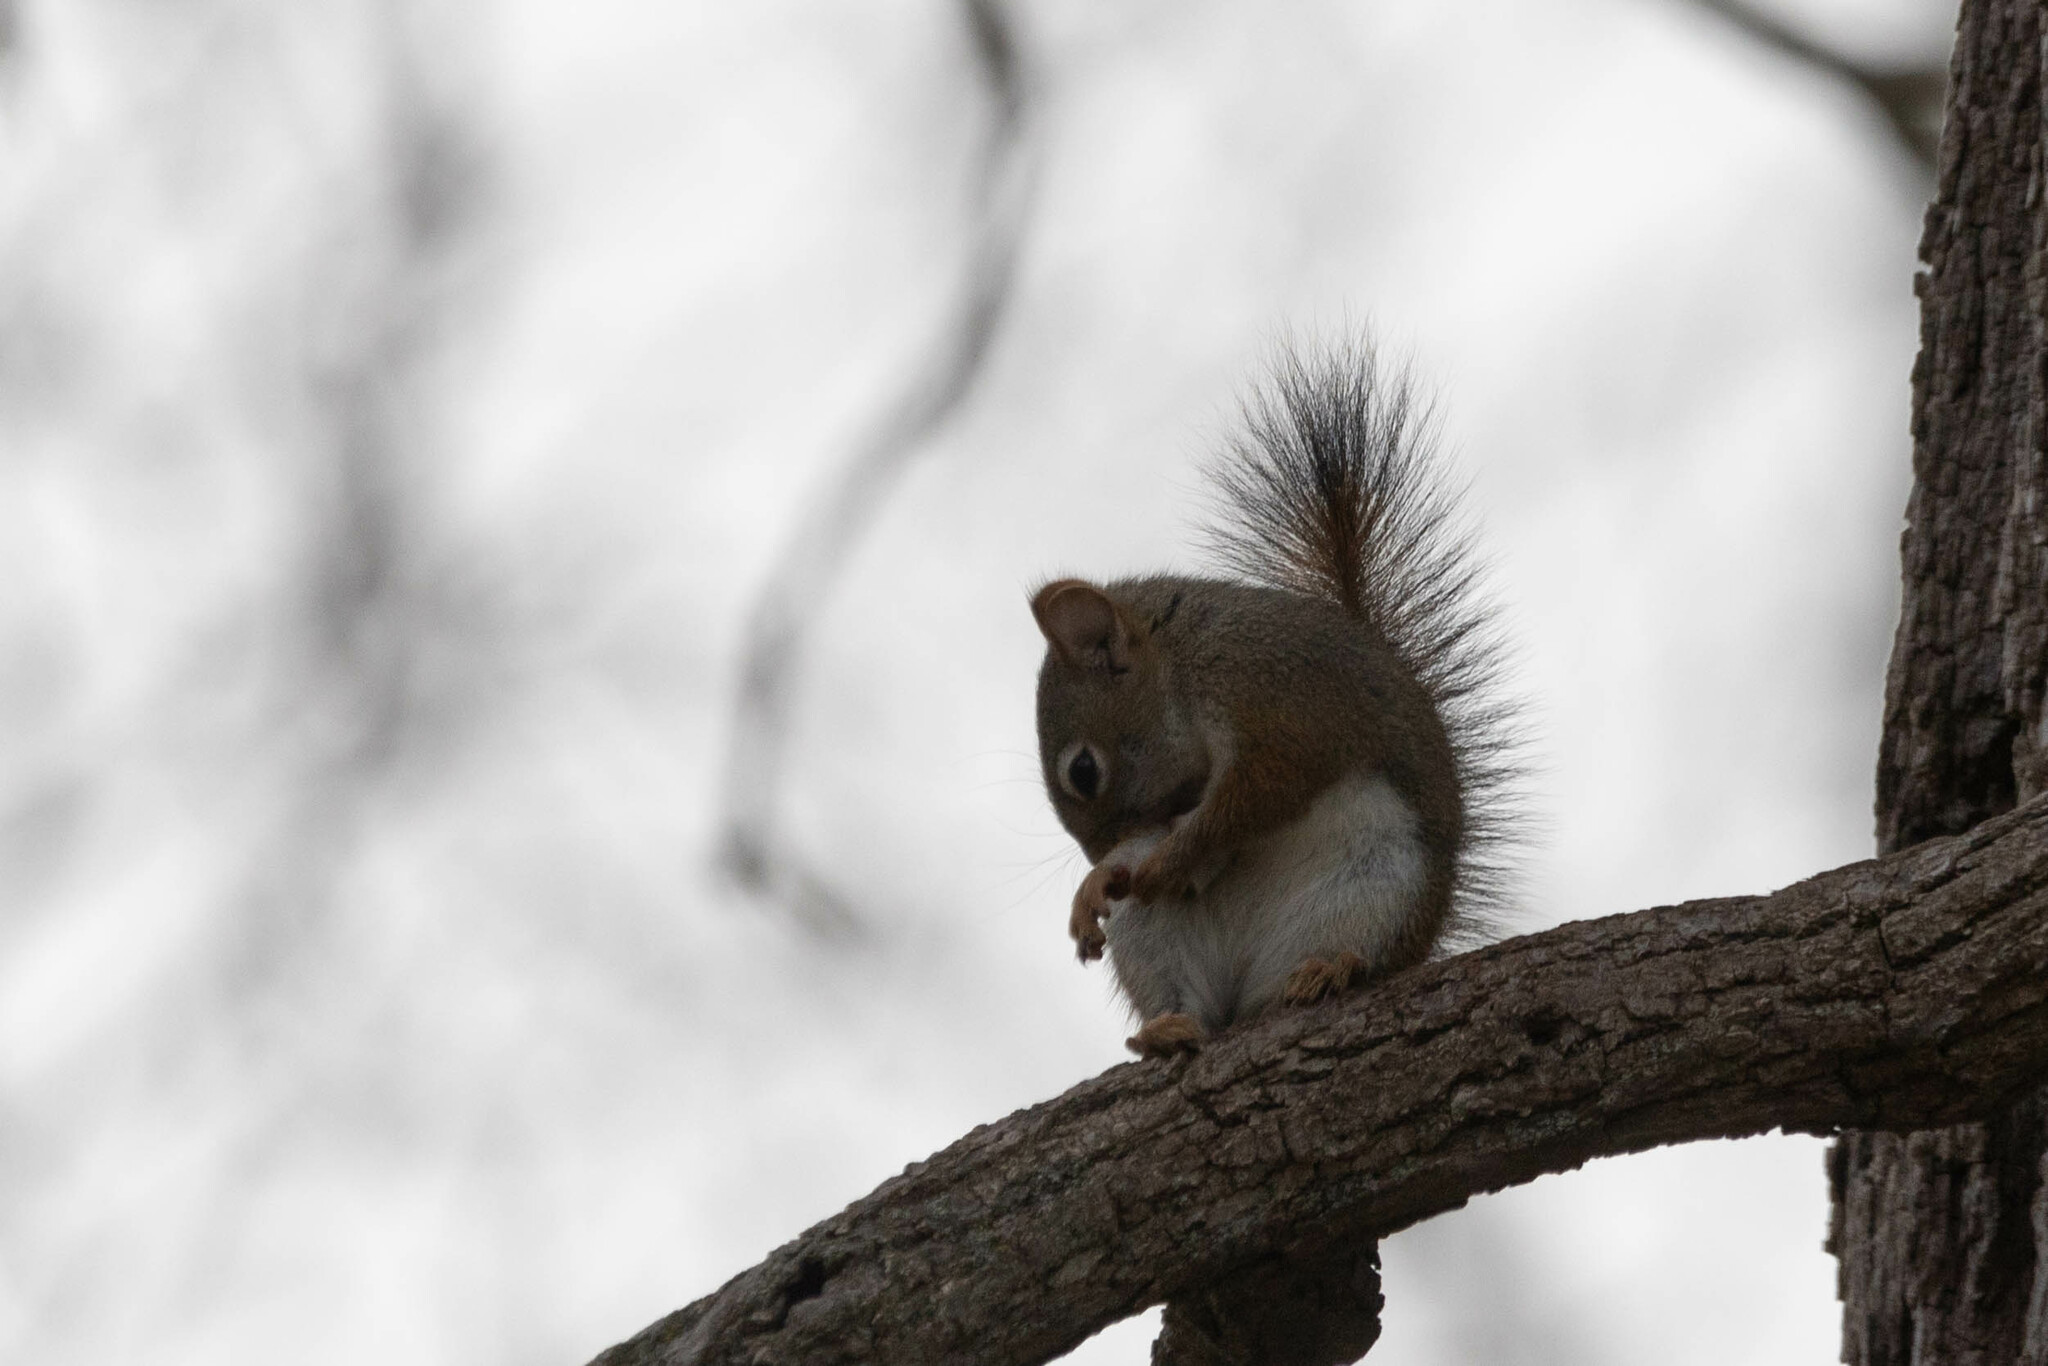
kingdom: Animalia
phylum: Chordata
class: Mammalia
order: Rodentia
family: Sciuridae
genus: Tamiasciurus
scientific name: Tamiasciurus hudsonicus
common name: Red squirrel
